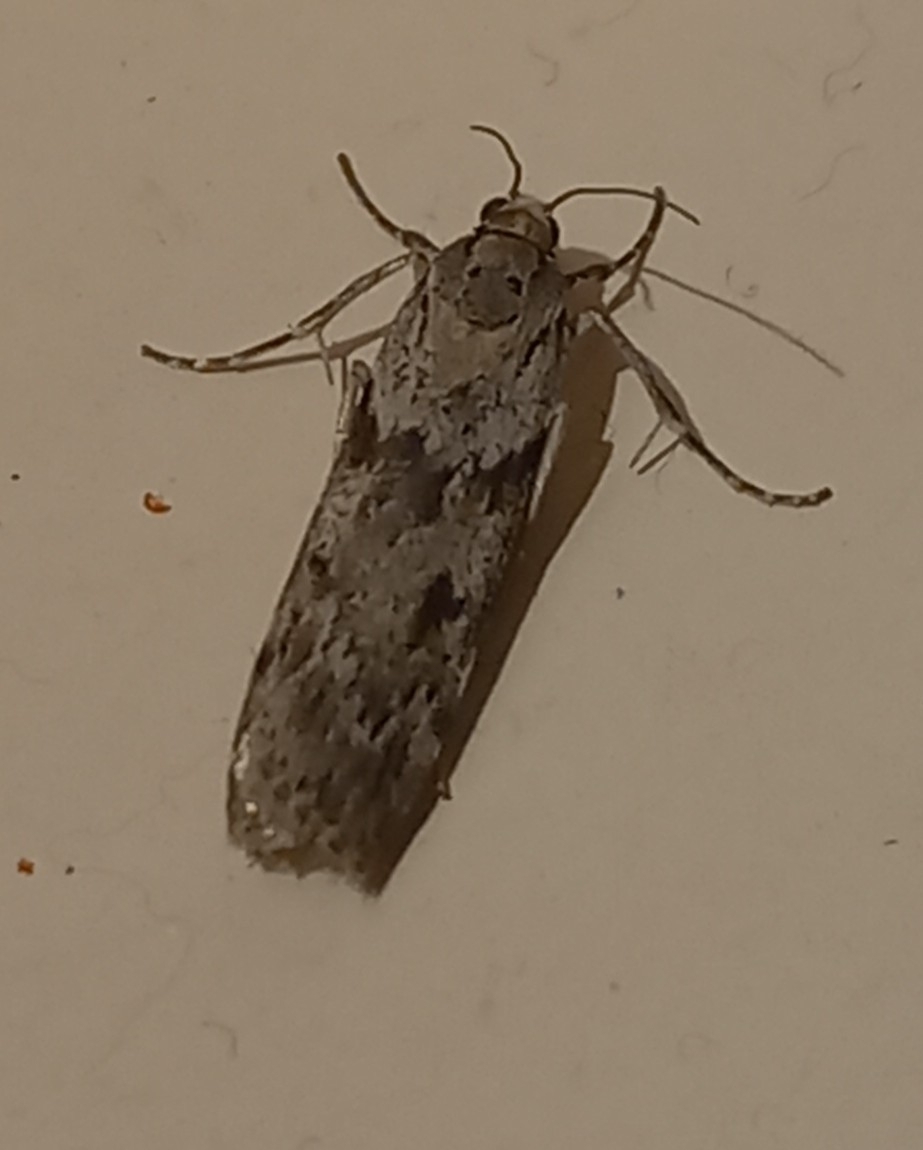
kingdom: Animalia
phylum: Arthropoda
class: Insecta
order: Lepidoptera
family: Crambidae
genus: Scoparia
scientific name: Scoparia halopis
